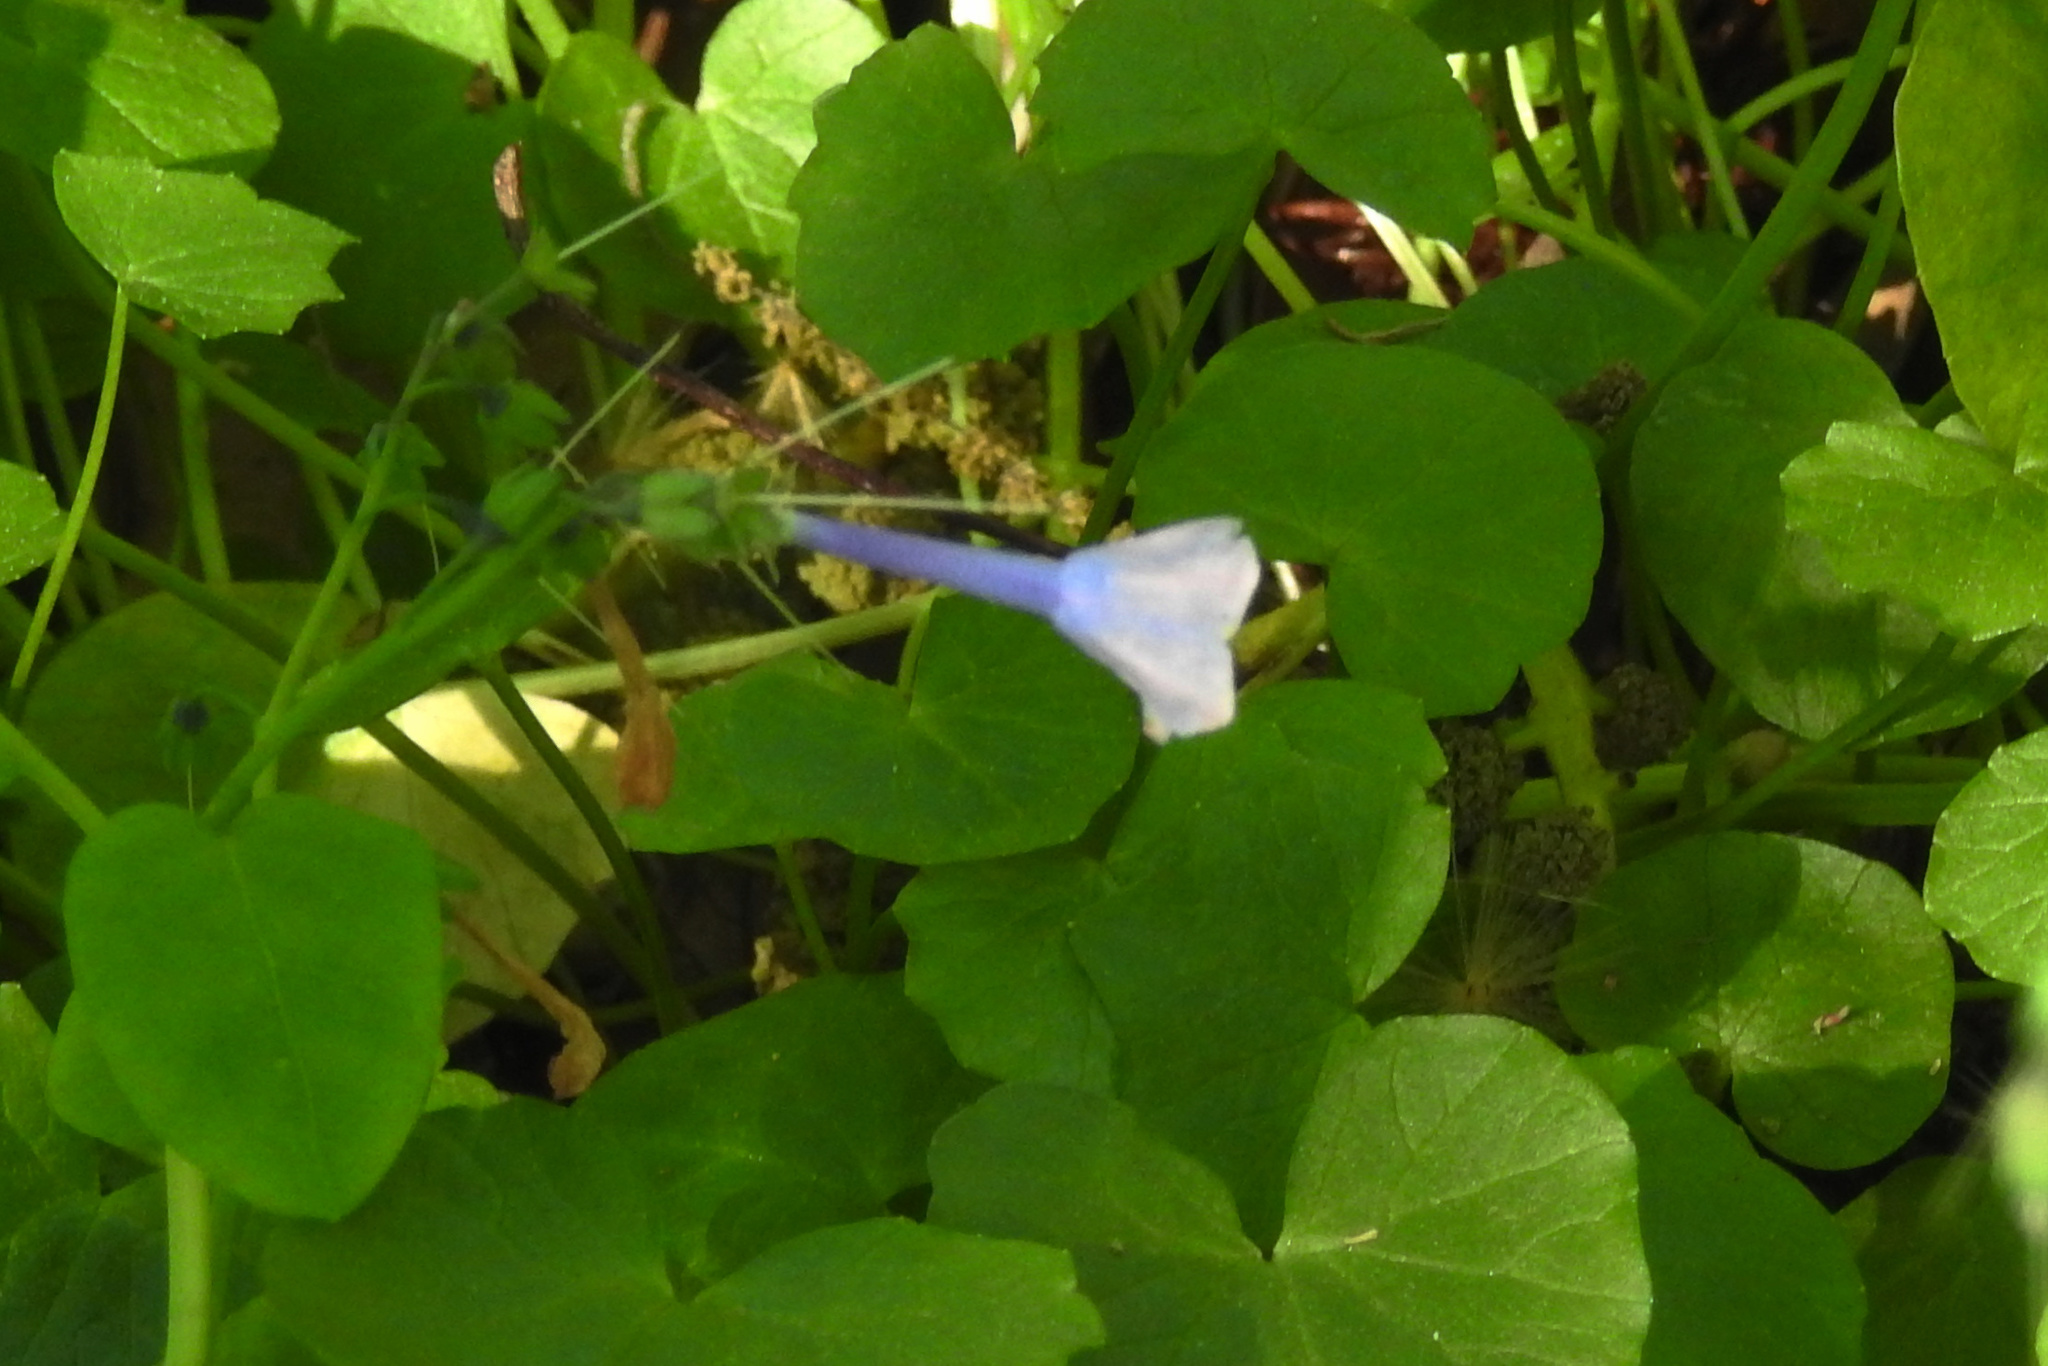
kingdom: Plantae
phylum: Tracheophyta
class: Magnoliopsida
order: Boraginales
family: Boraginaceae
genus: Mertensia
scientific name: Mertensia virginica
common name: Virginia bluebells
